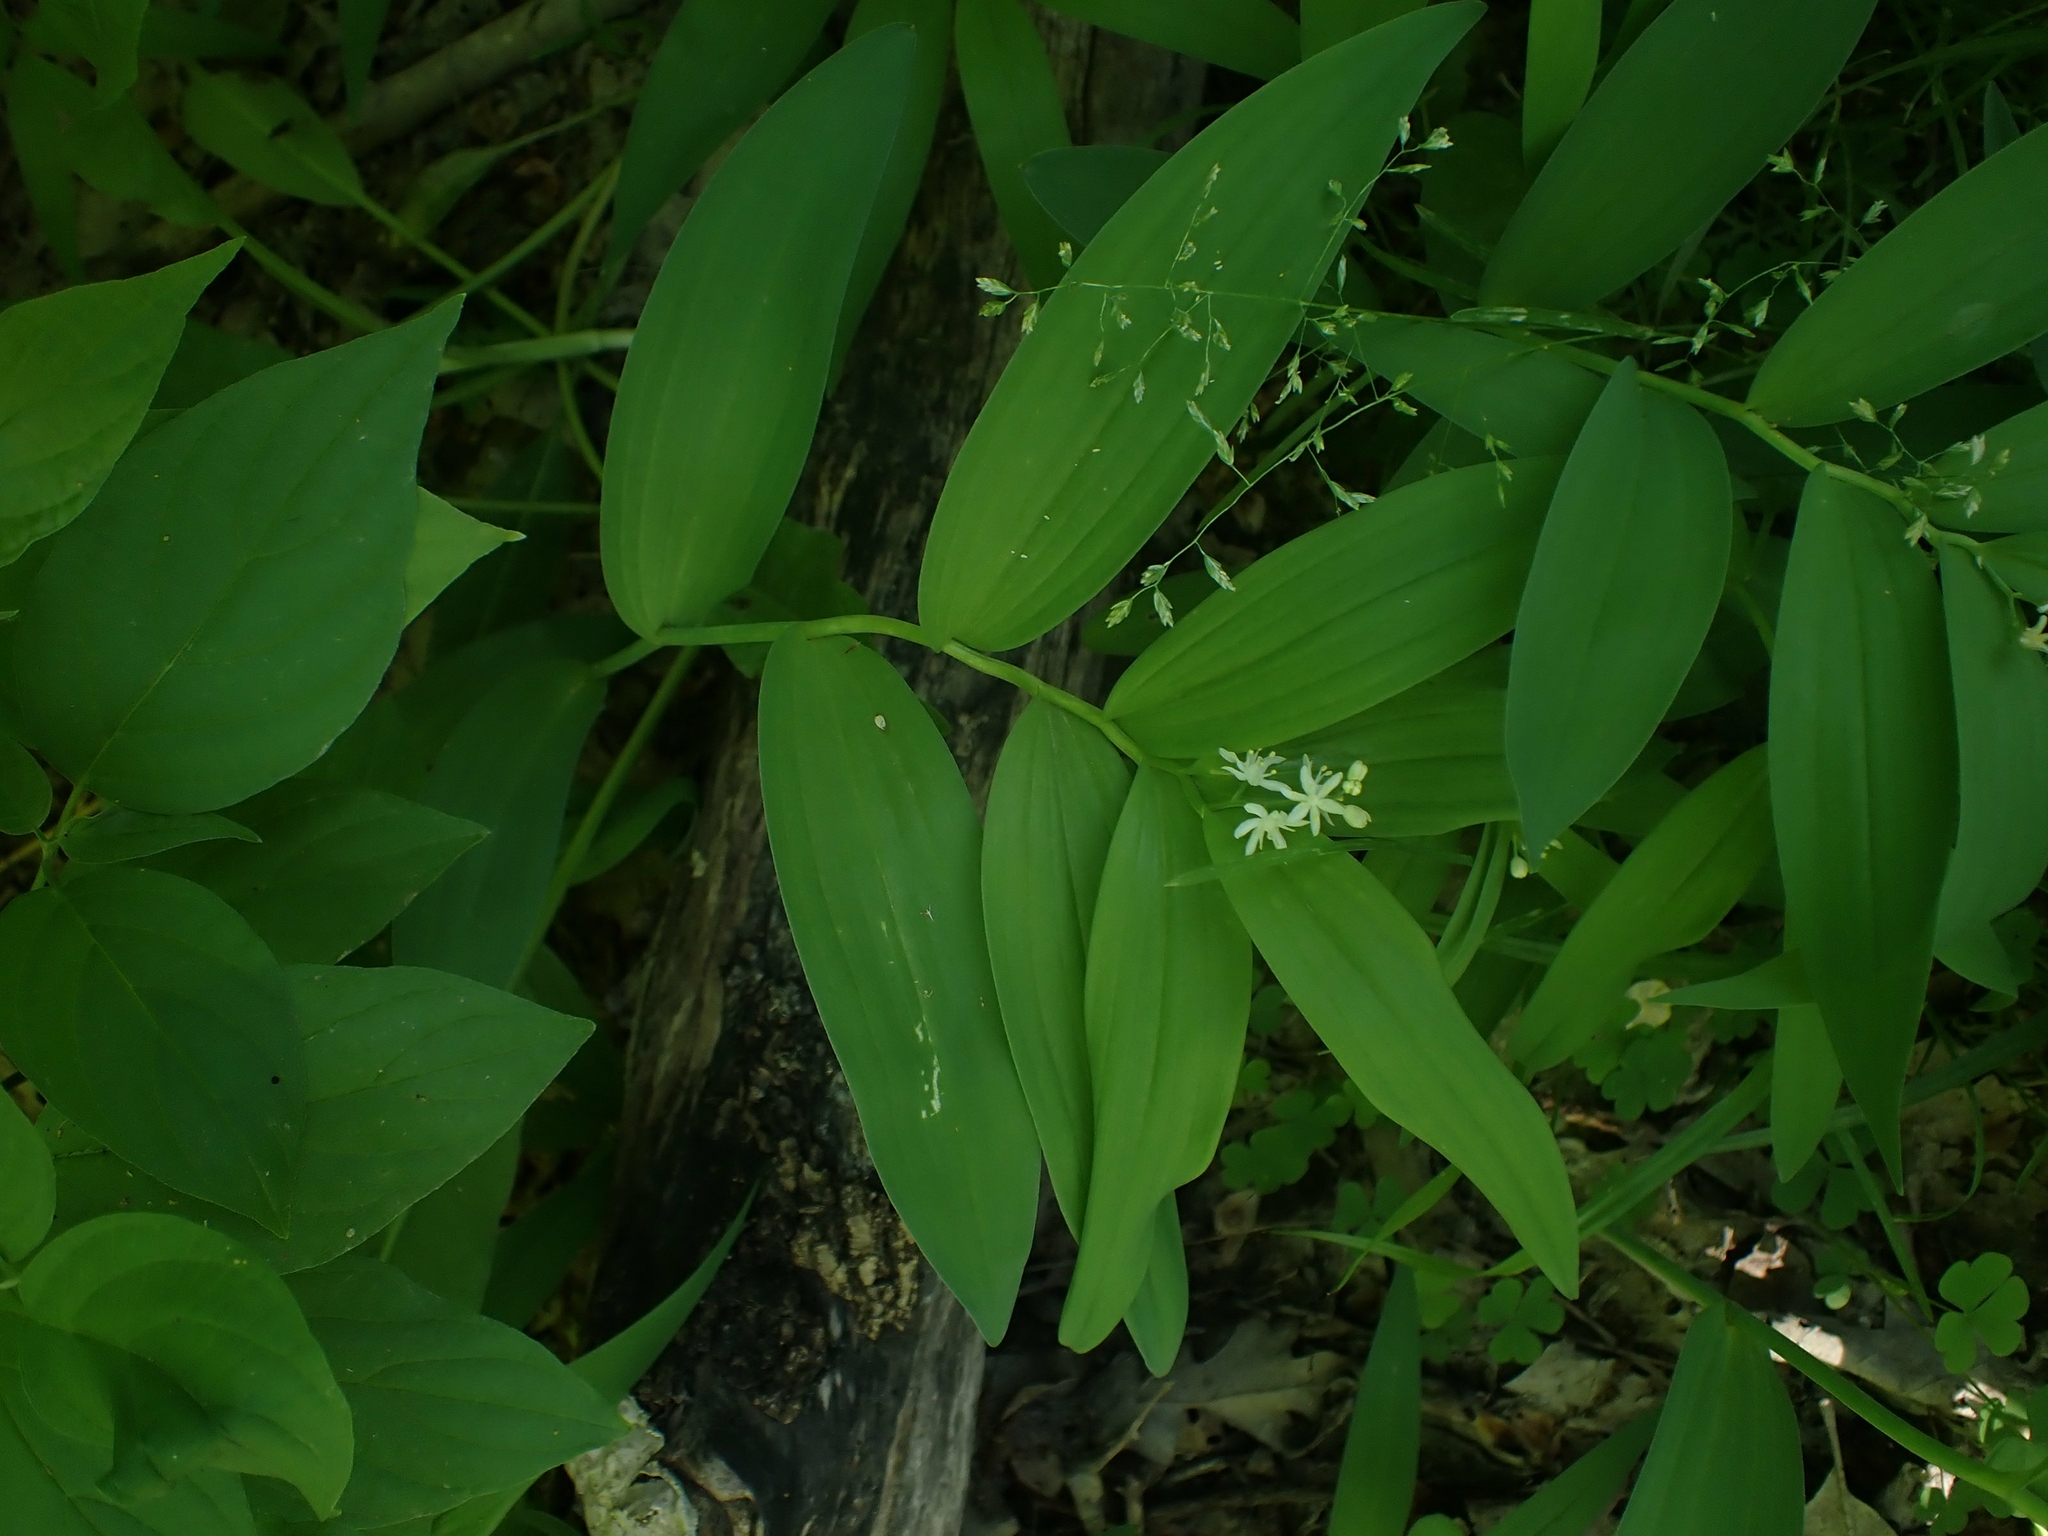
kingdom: Plantae
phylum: Tracheophyta
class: Liliopsida
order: Asparagales
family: Asparagaceae
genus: Maianthemum
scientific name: Maianthemum stellatum
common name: Little false solomon's seal
